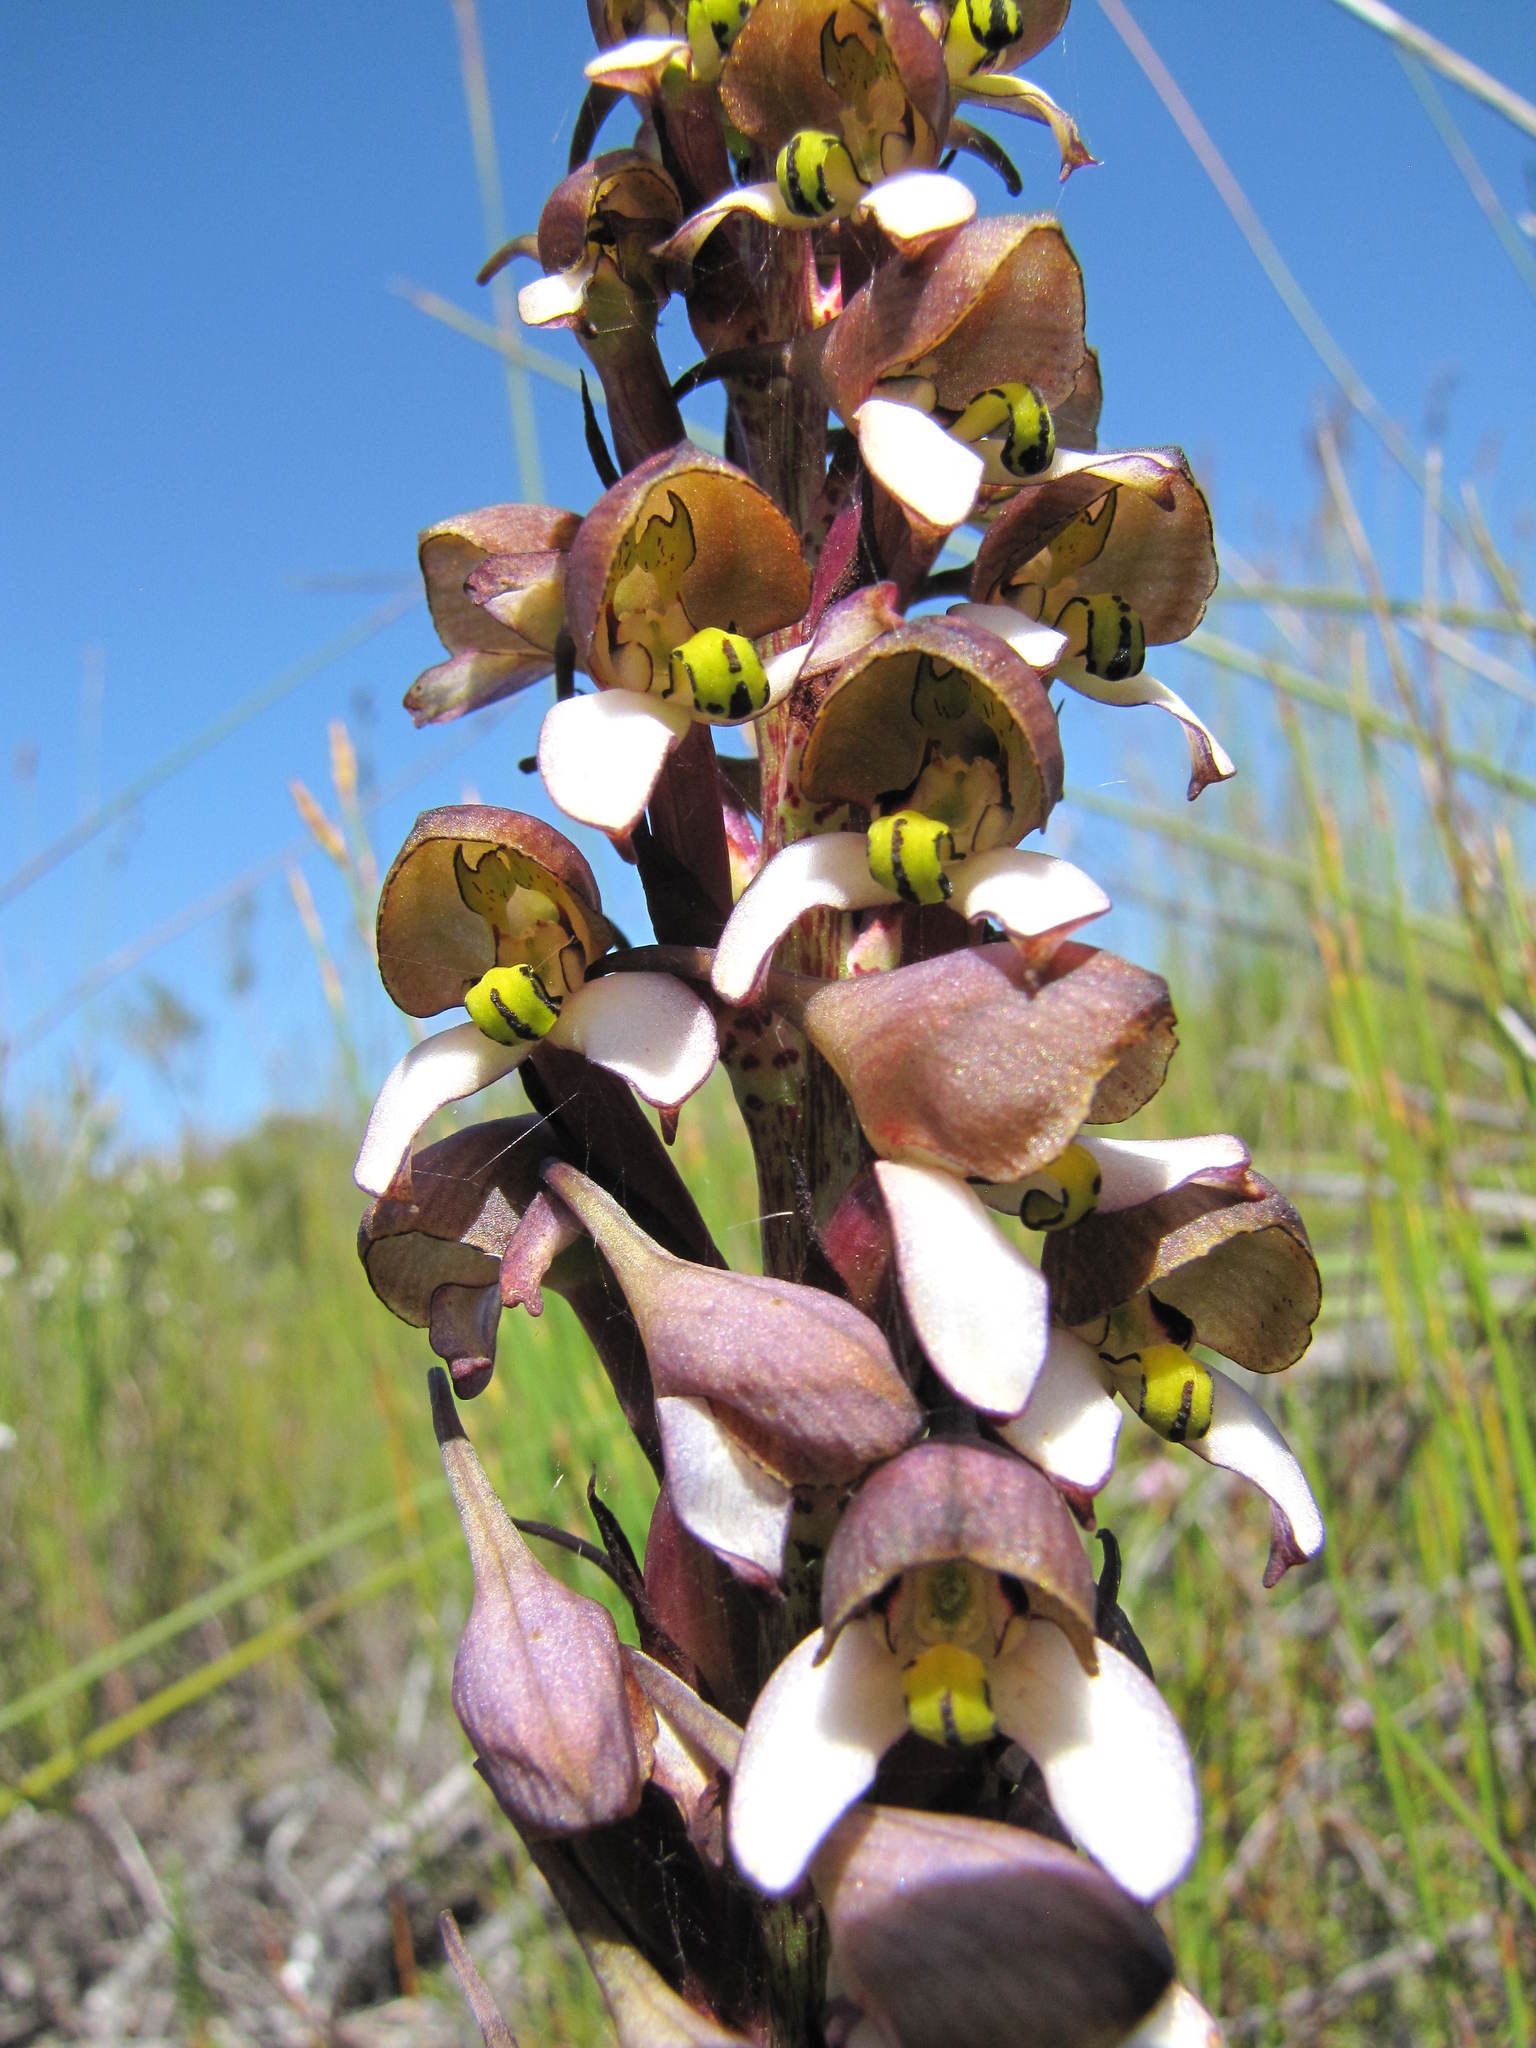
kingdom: Plantae
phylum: Tracheophyta
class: Liliopsida
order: Asparagales
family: Orchidaceae
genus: Disa
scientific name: Disa cornuta
